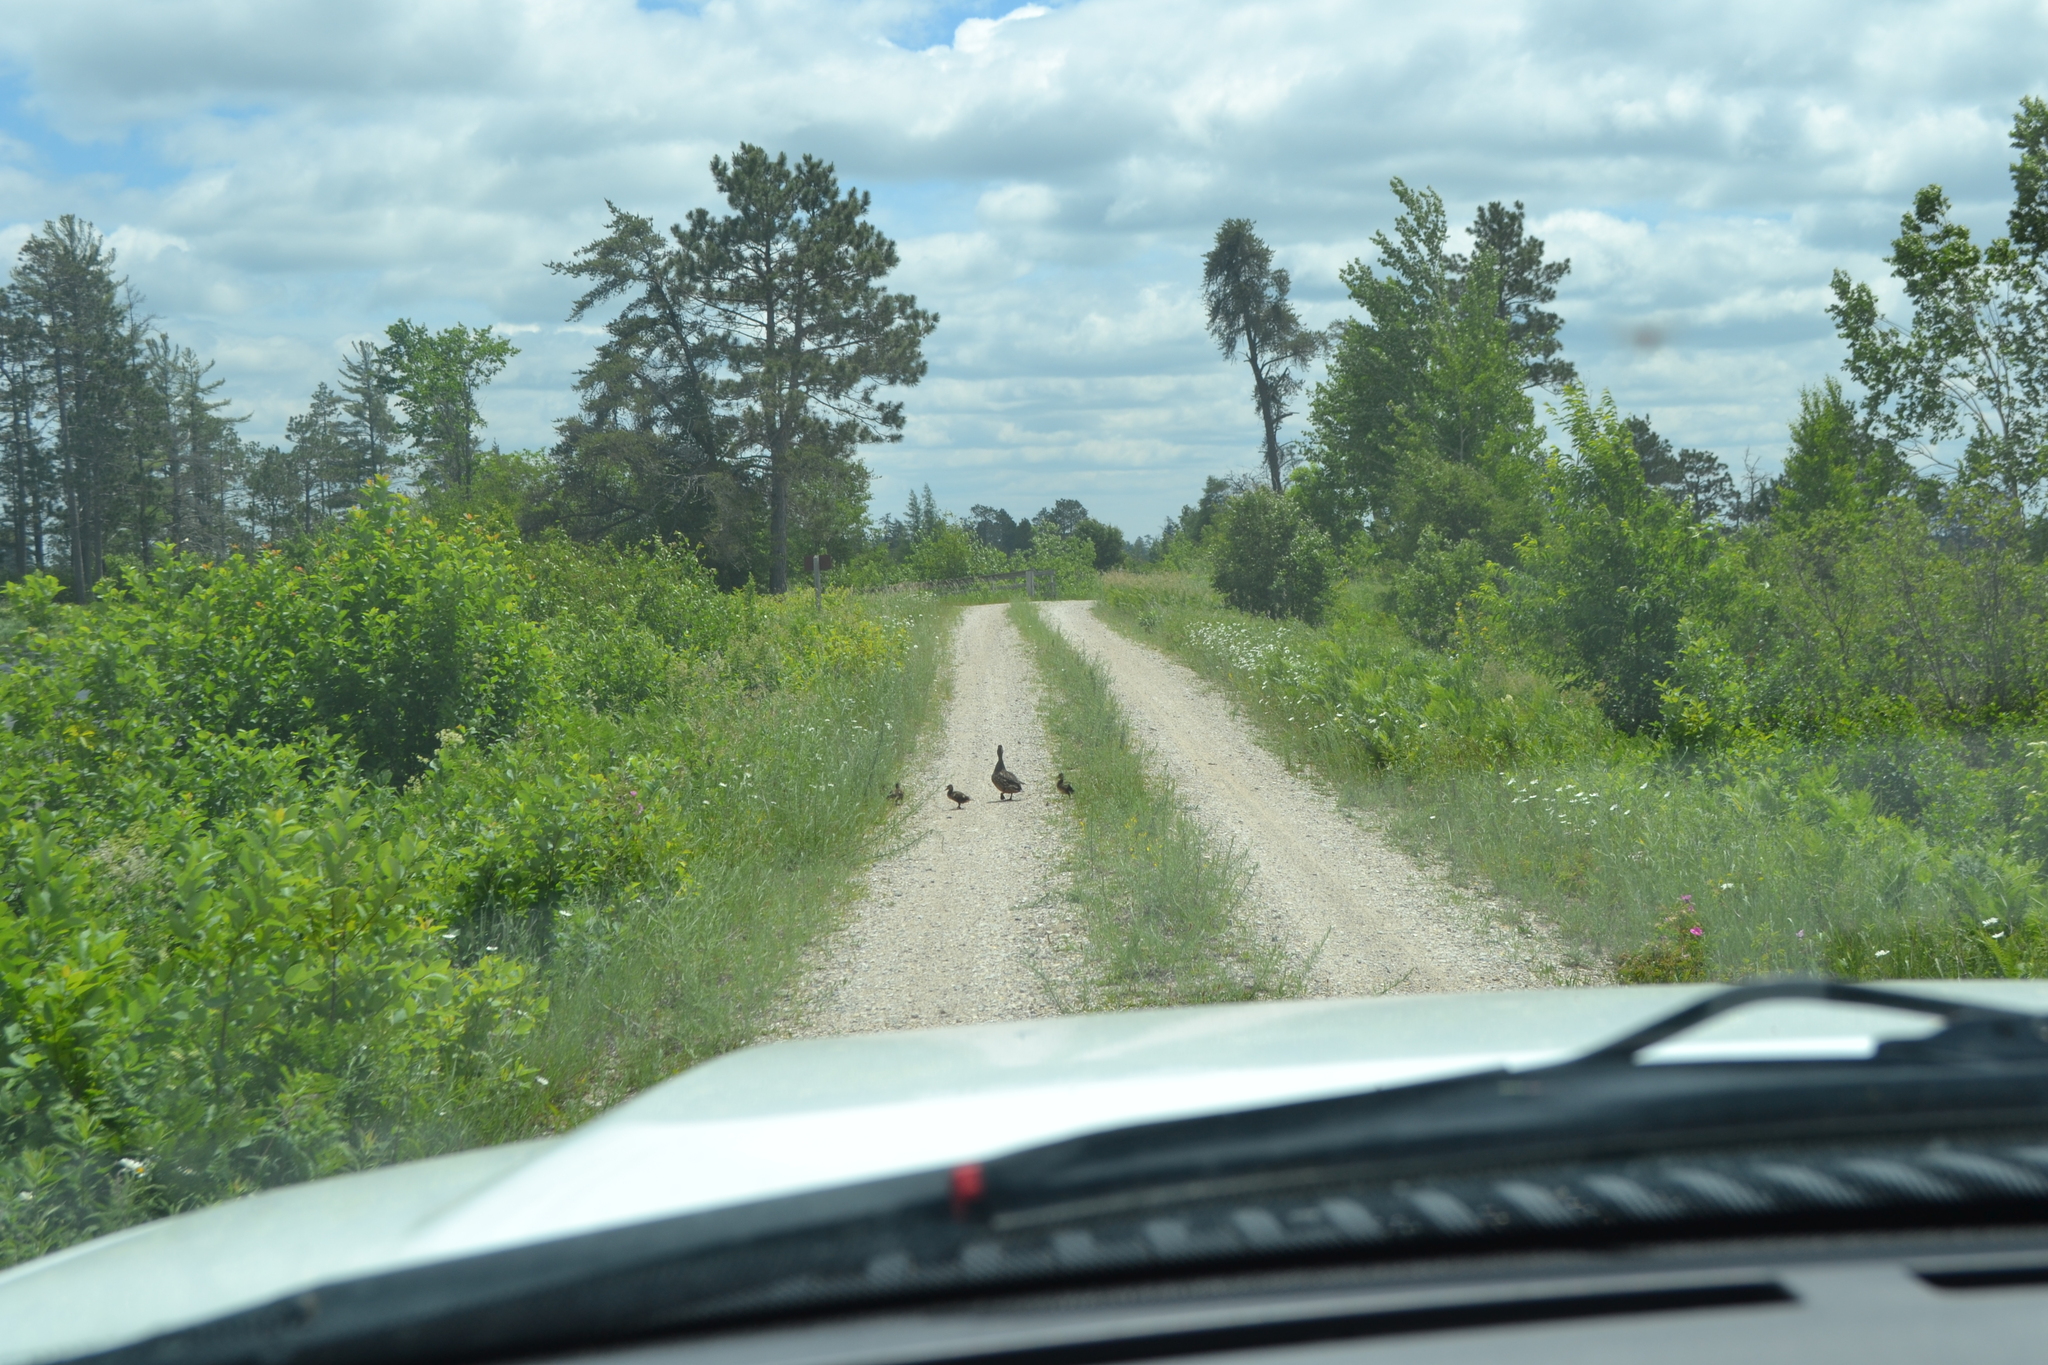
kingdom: Animalia
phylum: Chordata
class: Aves
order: Anseriformes
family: Anatidae
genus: Anas
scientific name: Anas platyrhynchos
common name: Mallard
